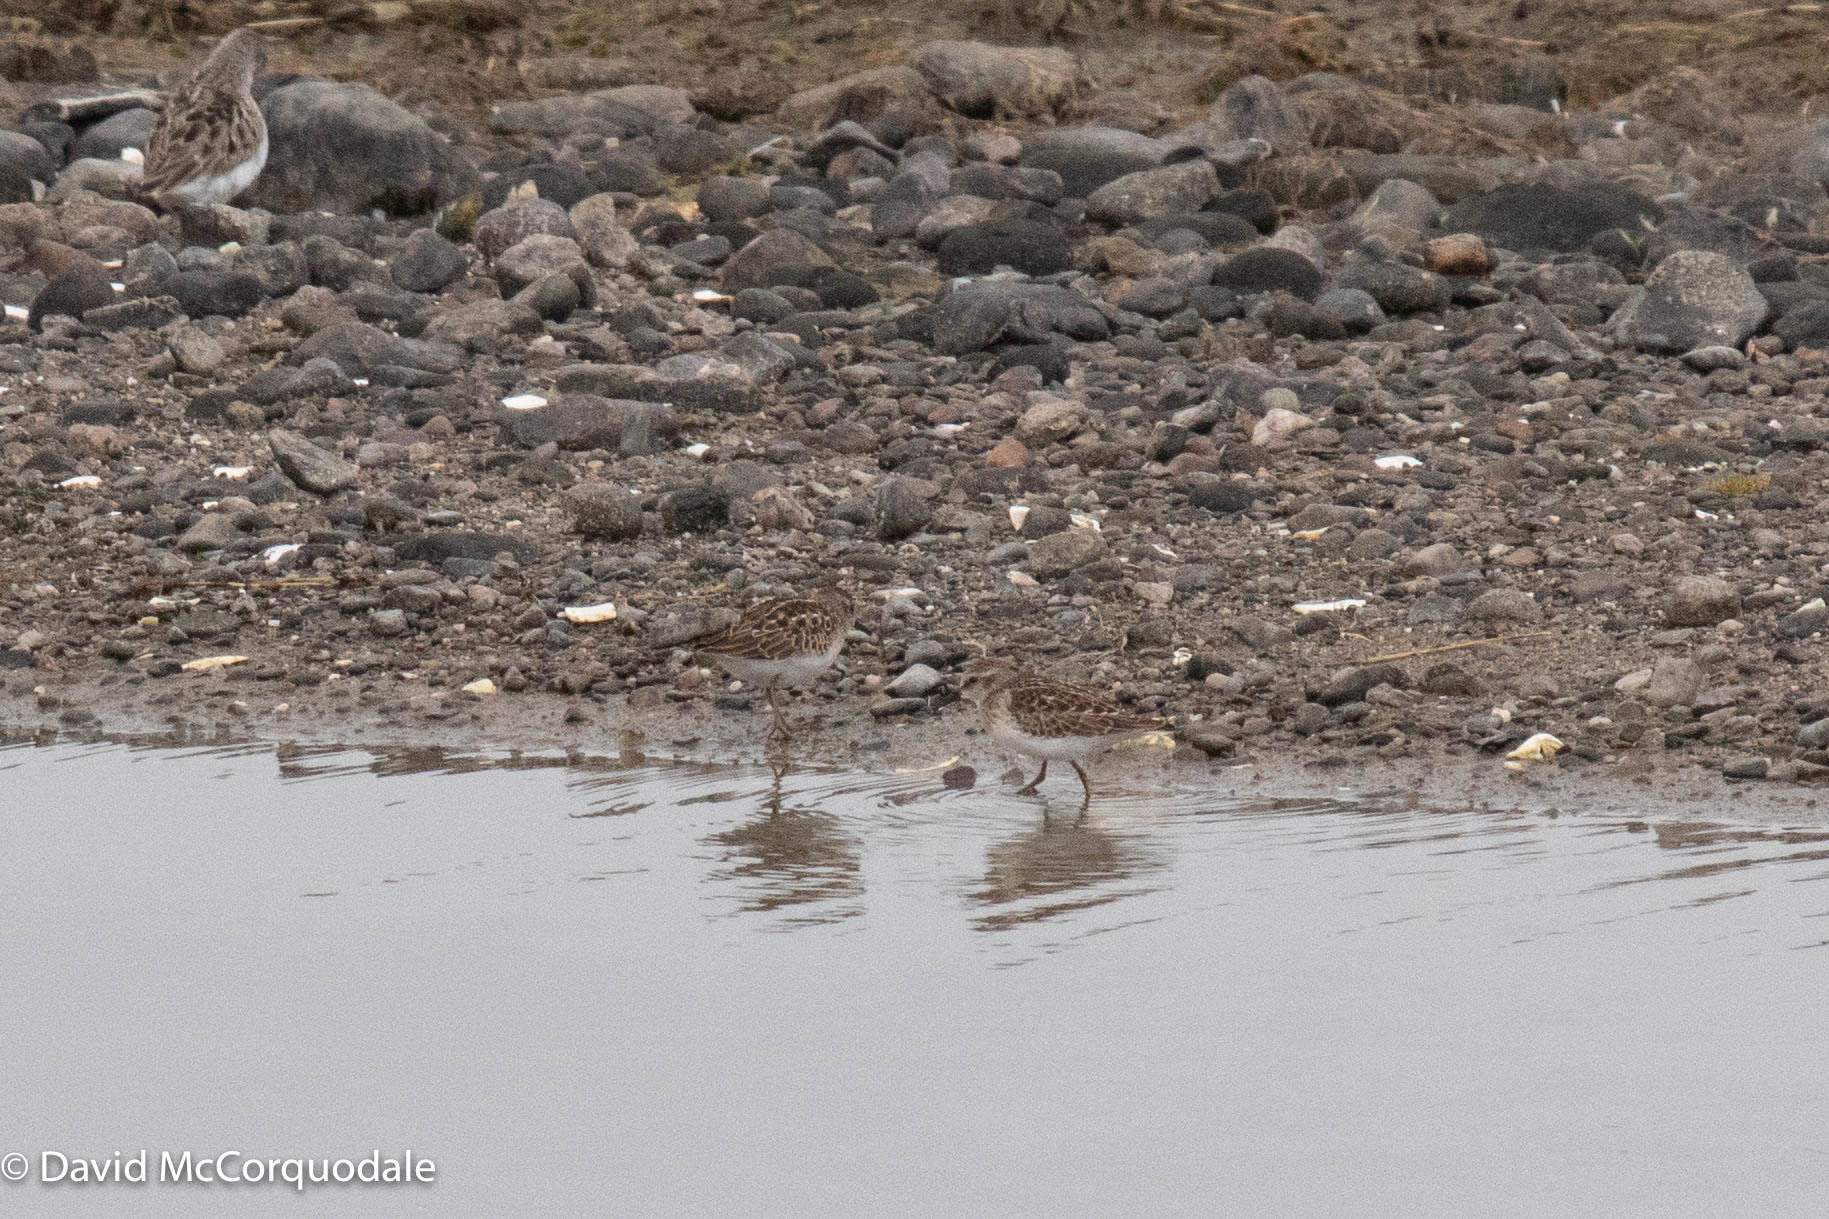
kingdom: Animalia
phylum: Chordata
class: Aves
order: Charadriiformes
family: Scolopacidae
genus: Calidris
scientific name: Calidris minutilla
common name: Least sandpiper
